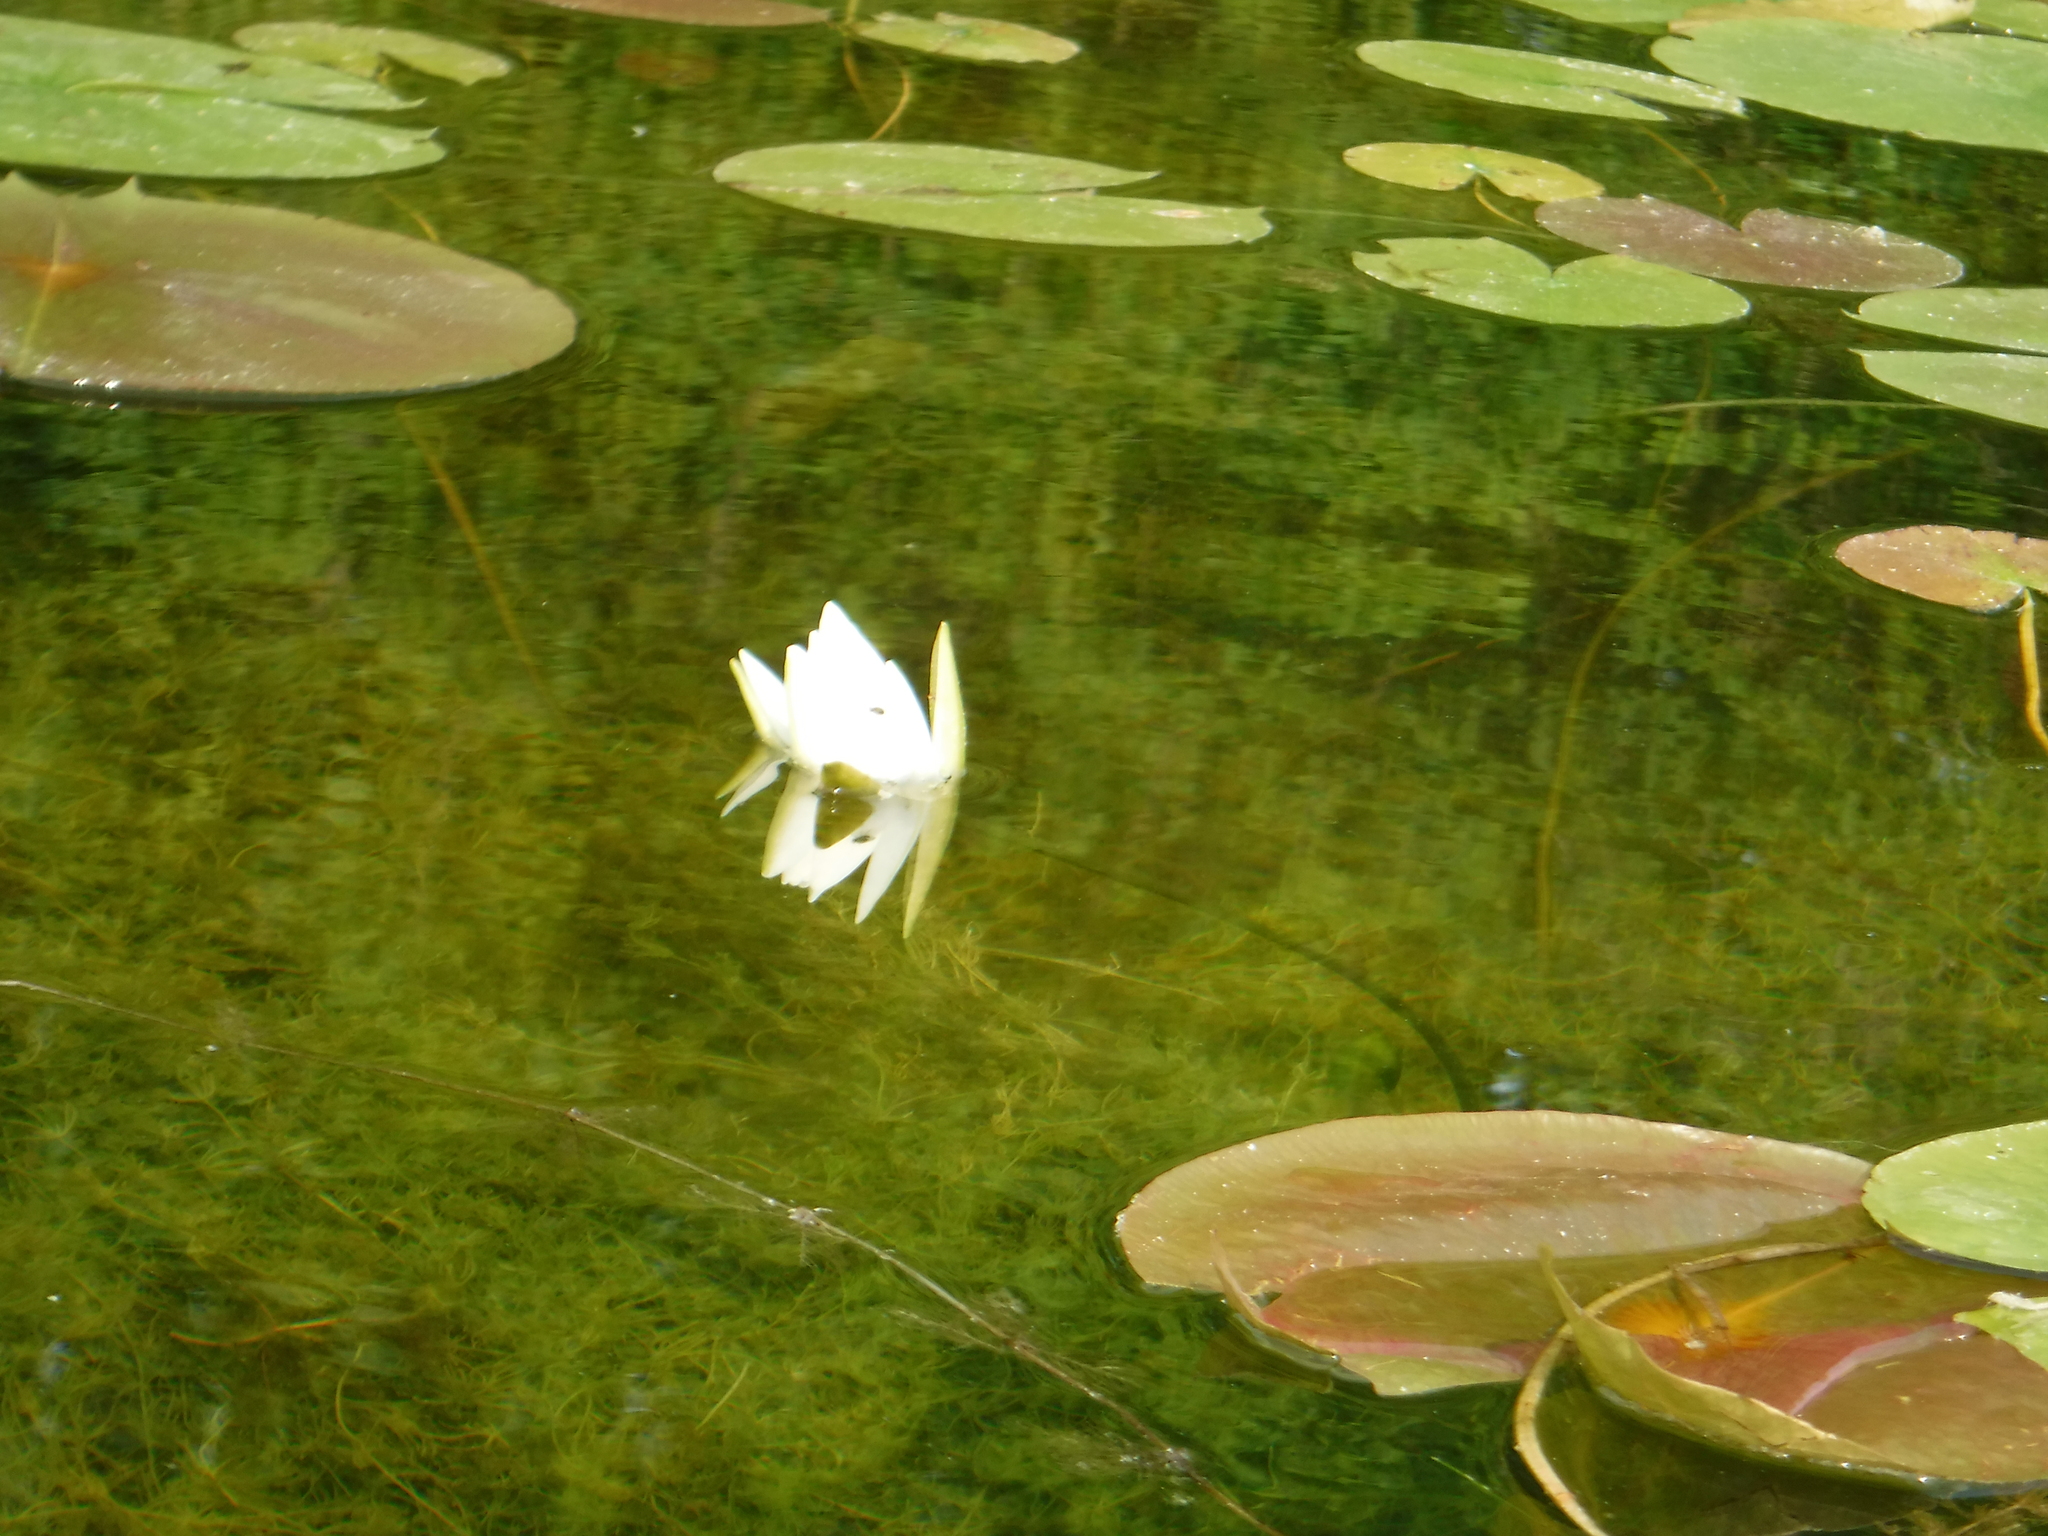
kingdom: Plantae
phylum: Tracheophyta
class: Magnoliopsida
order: Nymphaeales
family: Nymphaeaceae
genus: Nymphaea
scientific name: Nymphaea odorata
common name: Fragrant water-lily
